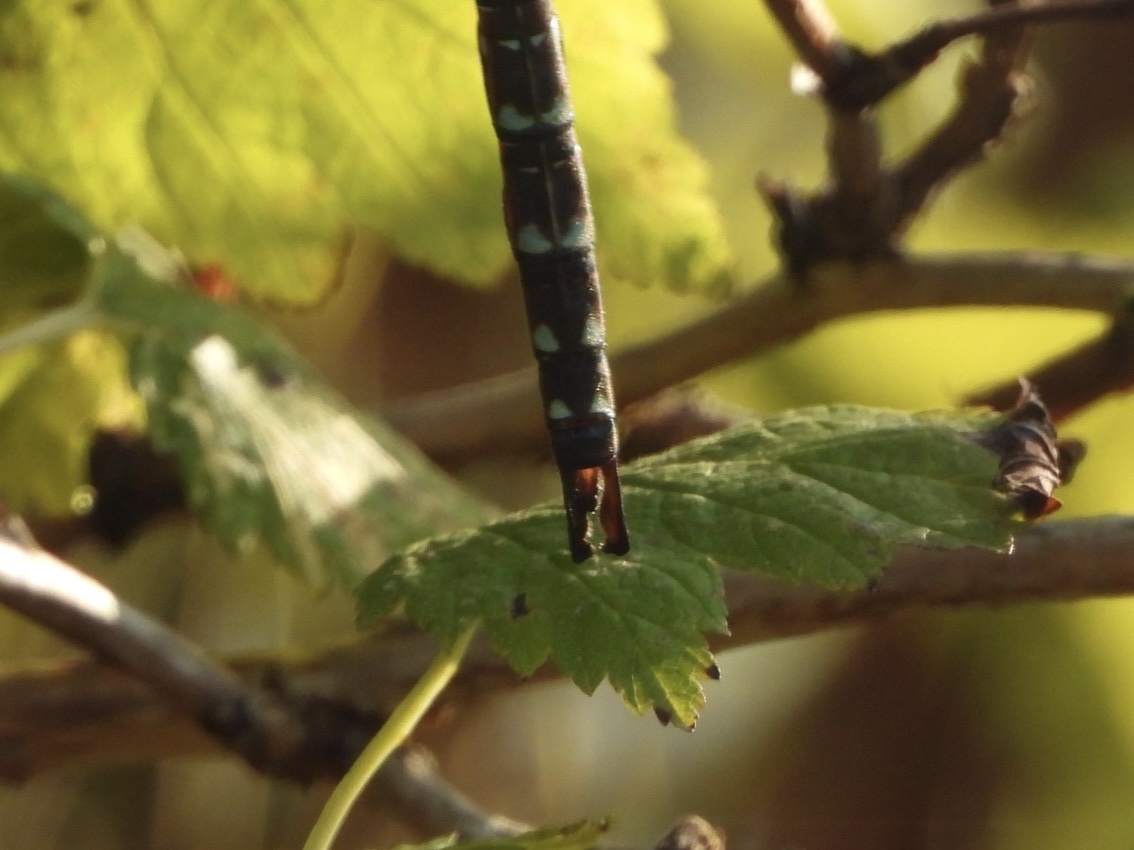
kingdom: Animalia
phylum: Arthropoda
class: Insecta
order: Odonata
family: Aeshnidae
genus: Aeshna
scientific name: Aeshna umbrosa
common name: Shadow darner
